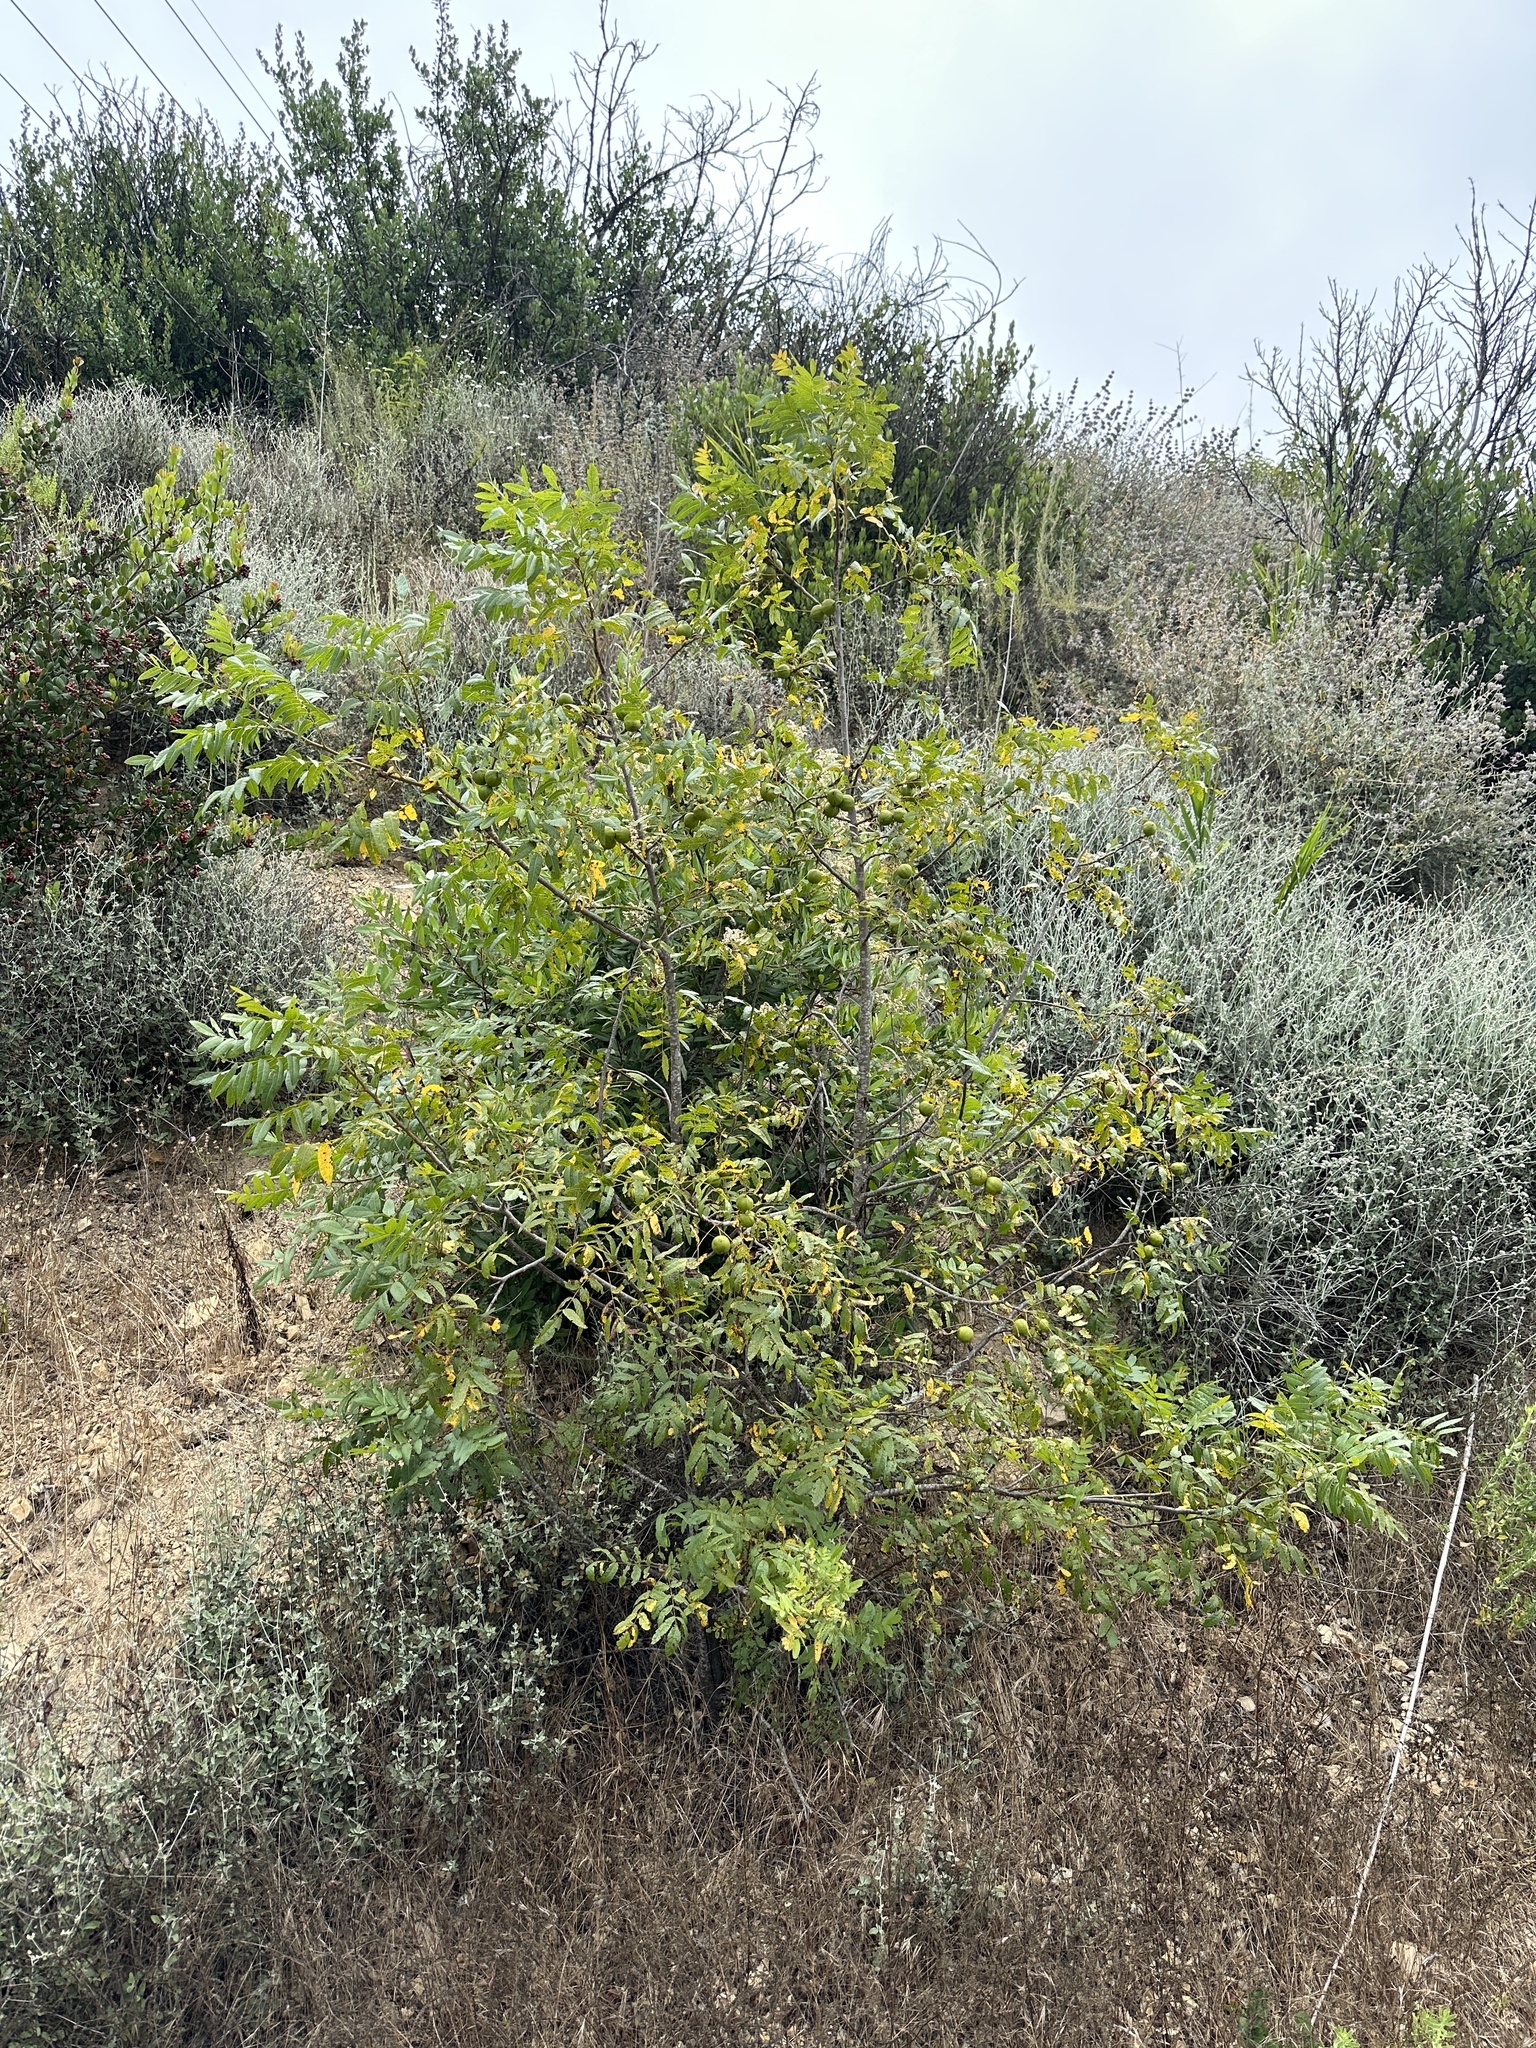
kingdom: Plantae
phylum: Tracheophyta
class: Magnoliopsida
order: Fagales
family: Juglandaceae
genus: Juglans
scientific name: Juglans californica
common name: Southern california black walnut
